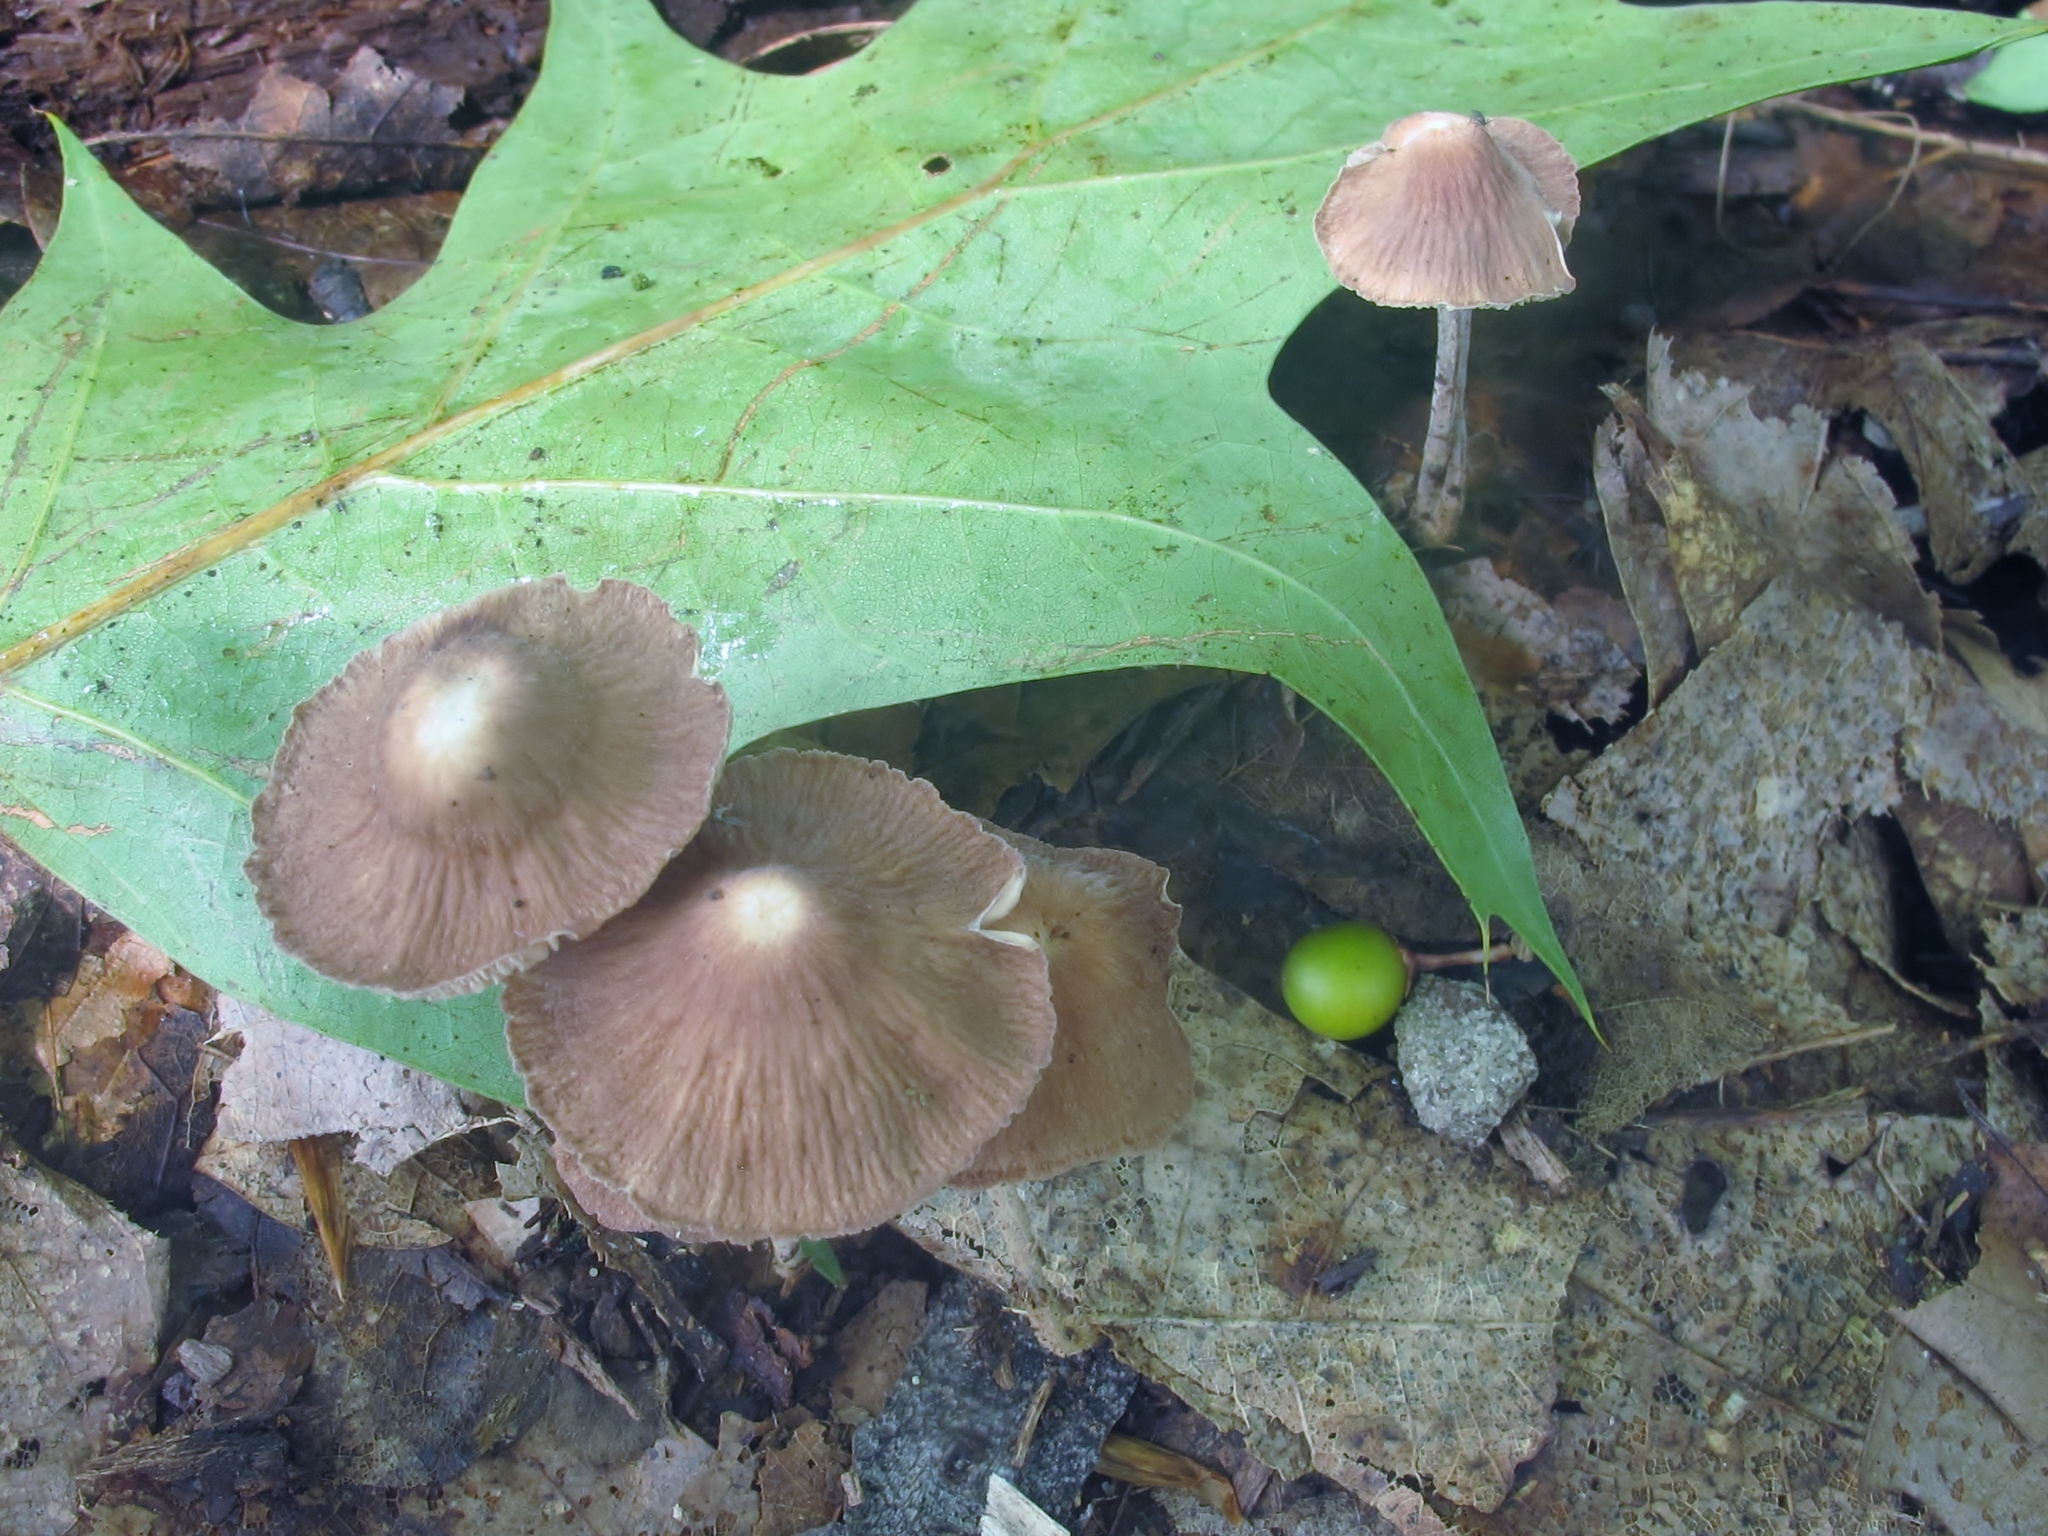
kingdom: Fungi
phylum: Basidiomycota
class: Agaricomycetes
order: Agaricales
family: Omphalotaceae
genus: Collybiopsis
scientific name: Collybiopsis subnuda
